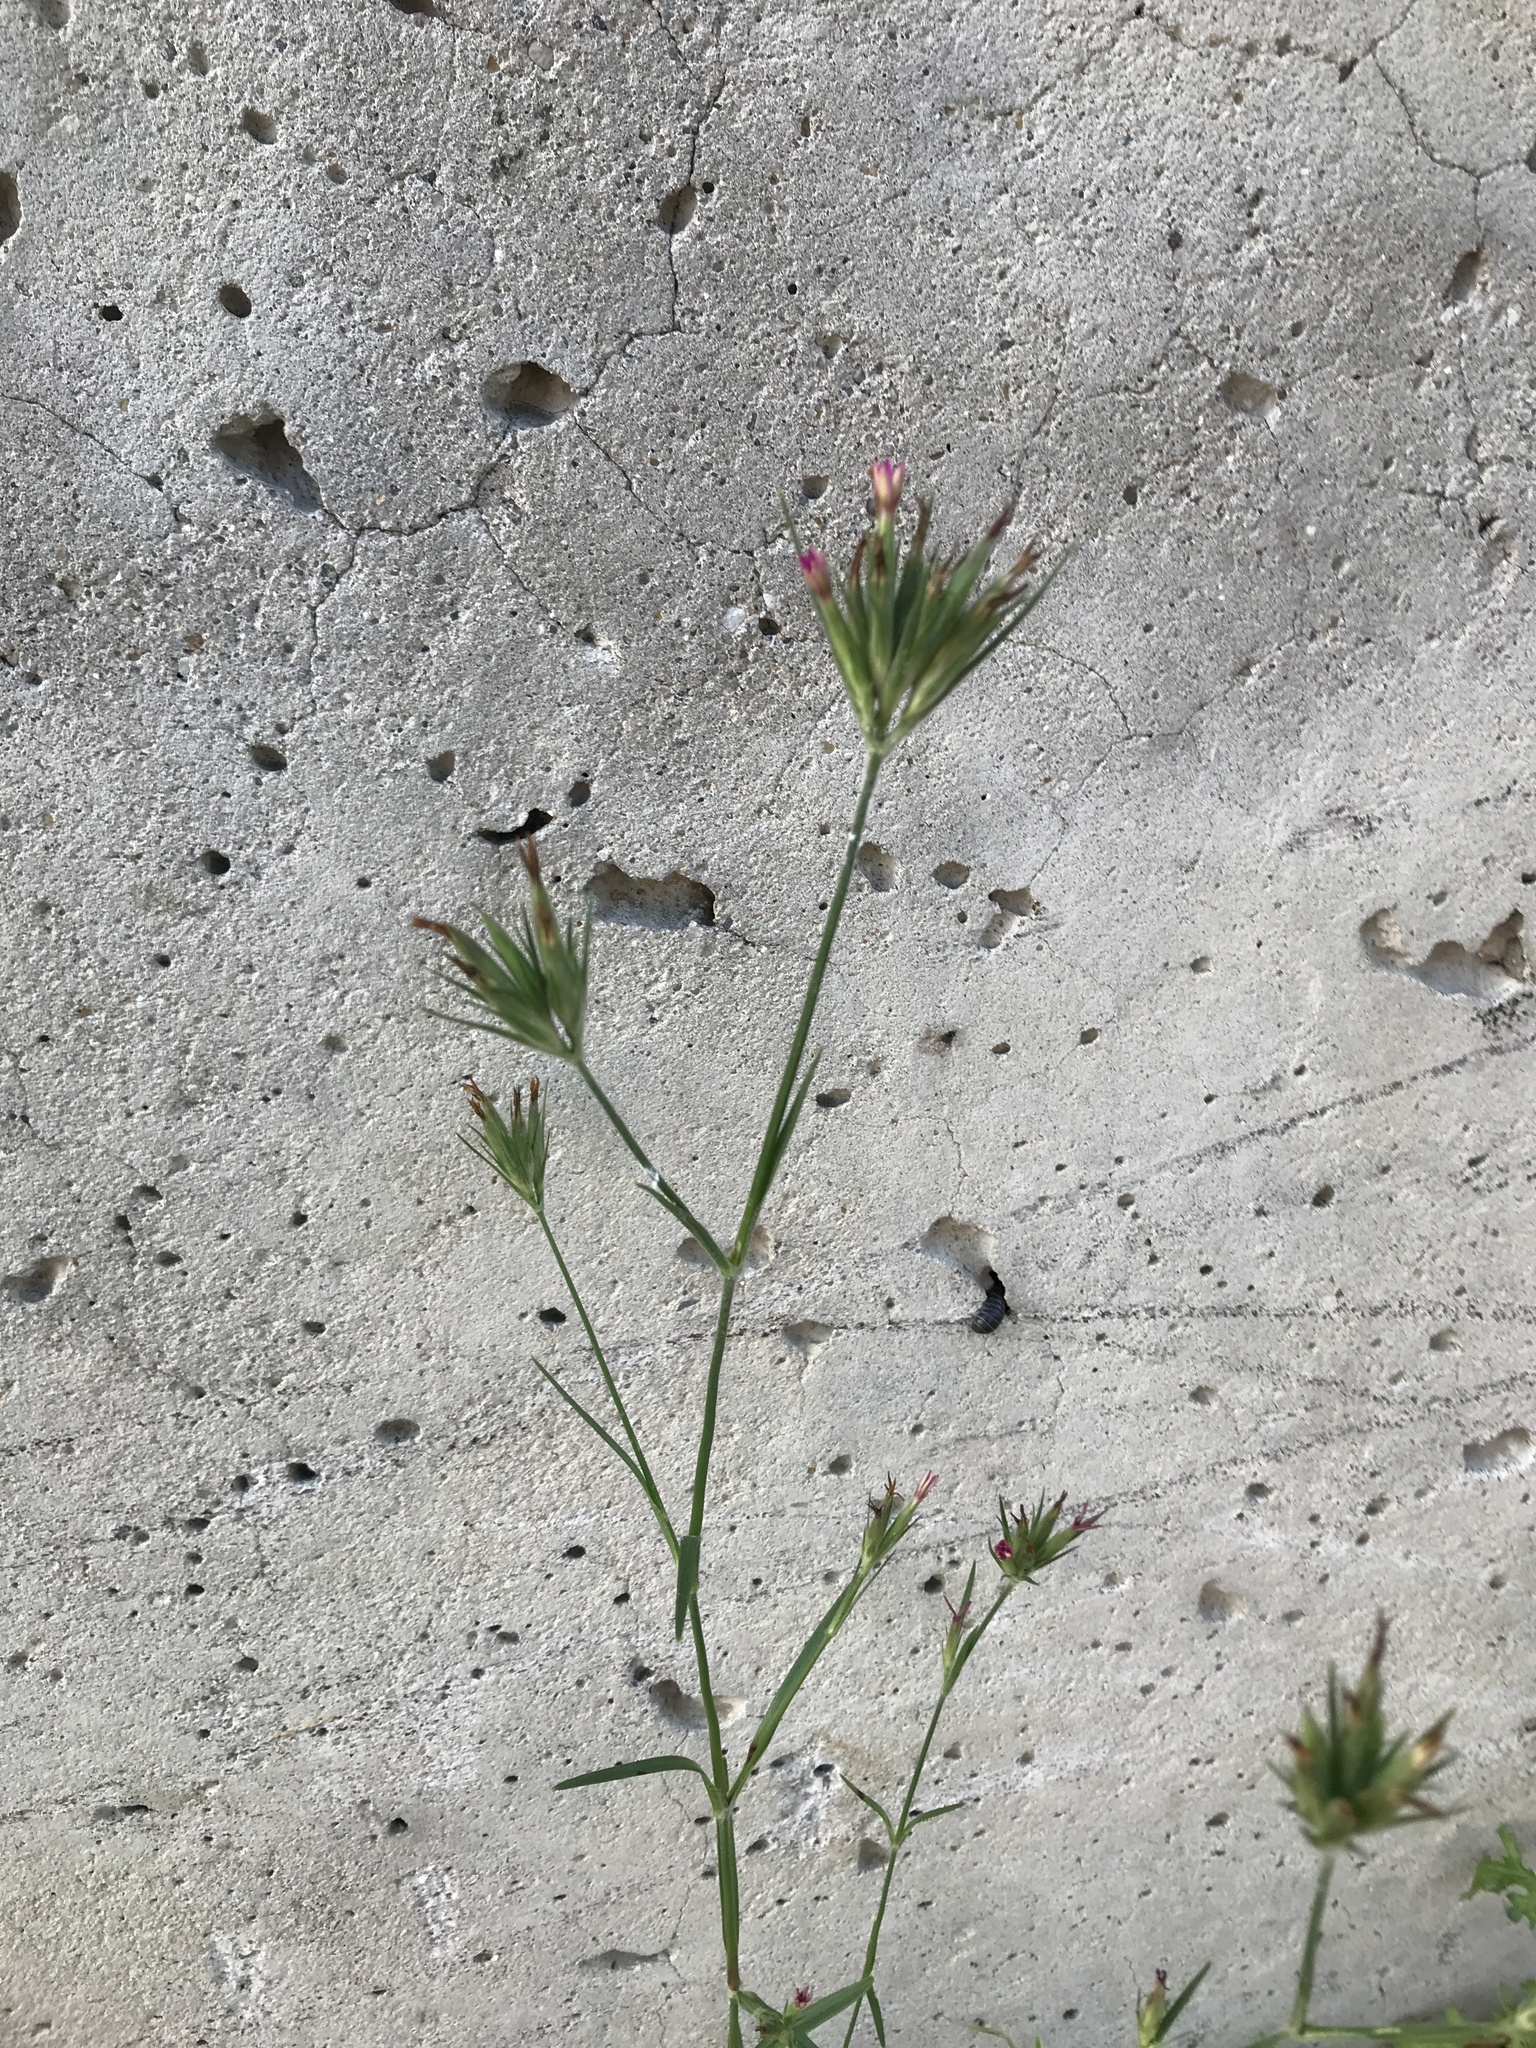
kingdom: Plantae
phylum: Tracheophyta
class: Magnoliopsida
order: Caryophyllales
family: Caryophyllaceae
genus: Dianthus
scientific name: Dianthus armeria
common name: Deptford pink
